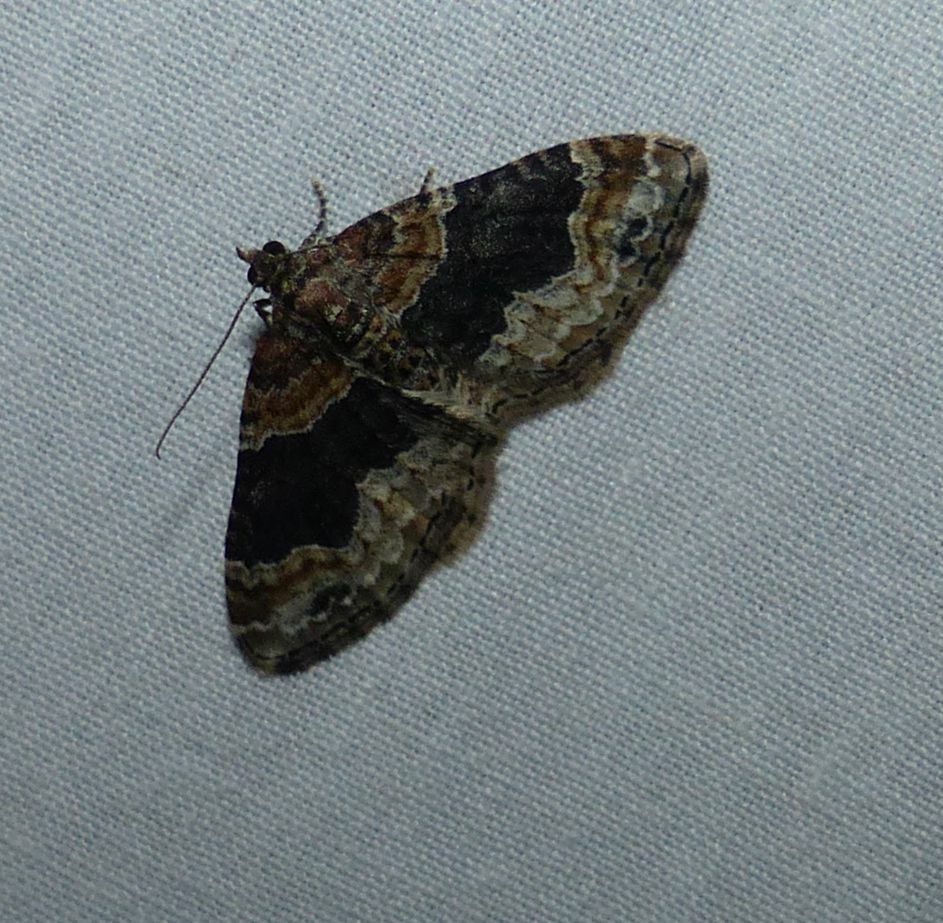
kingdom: Animalia
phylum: Arthropoda
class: Insecta
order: Lepidoptera
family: Geometridae
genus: Xanthorhoe
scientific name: Xanthorhoe ferrugata
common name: Dark-barred twin-spot carpet
